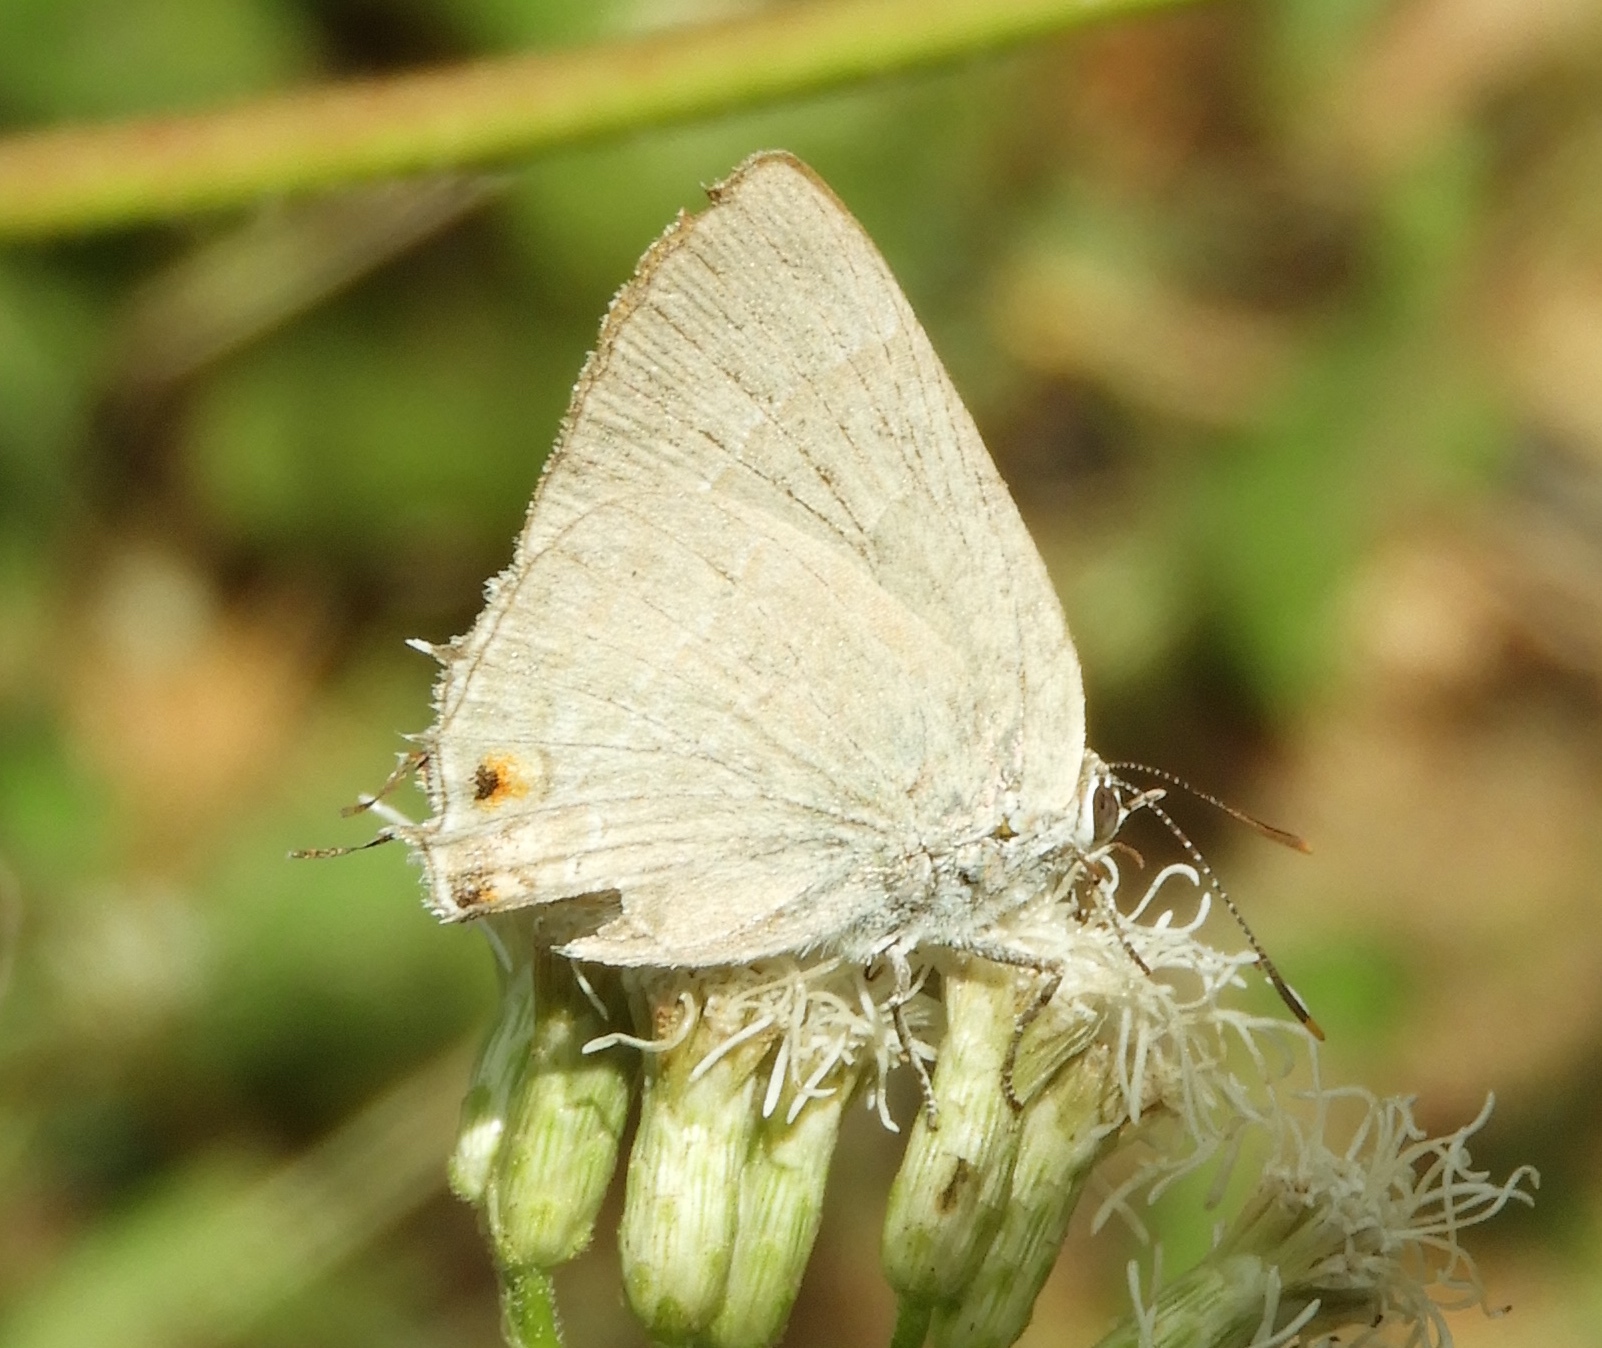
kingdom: Animalia
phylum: Arthropoda
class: Insecta
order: Lepidoptera
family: Lycaenidae
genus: Rekoa
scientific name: Rekoa
